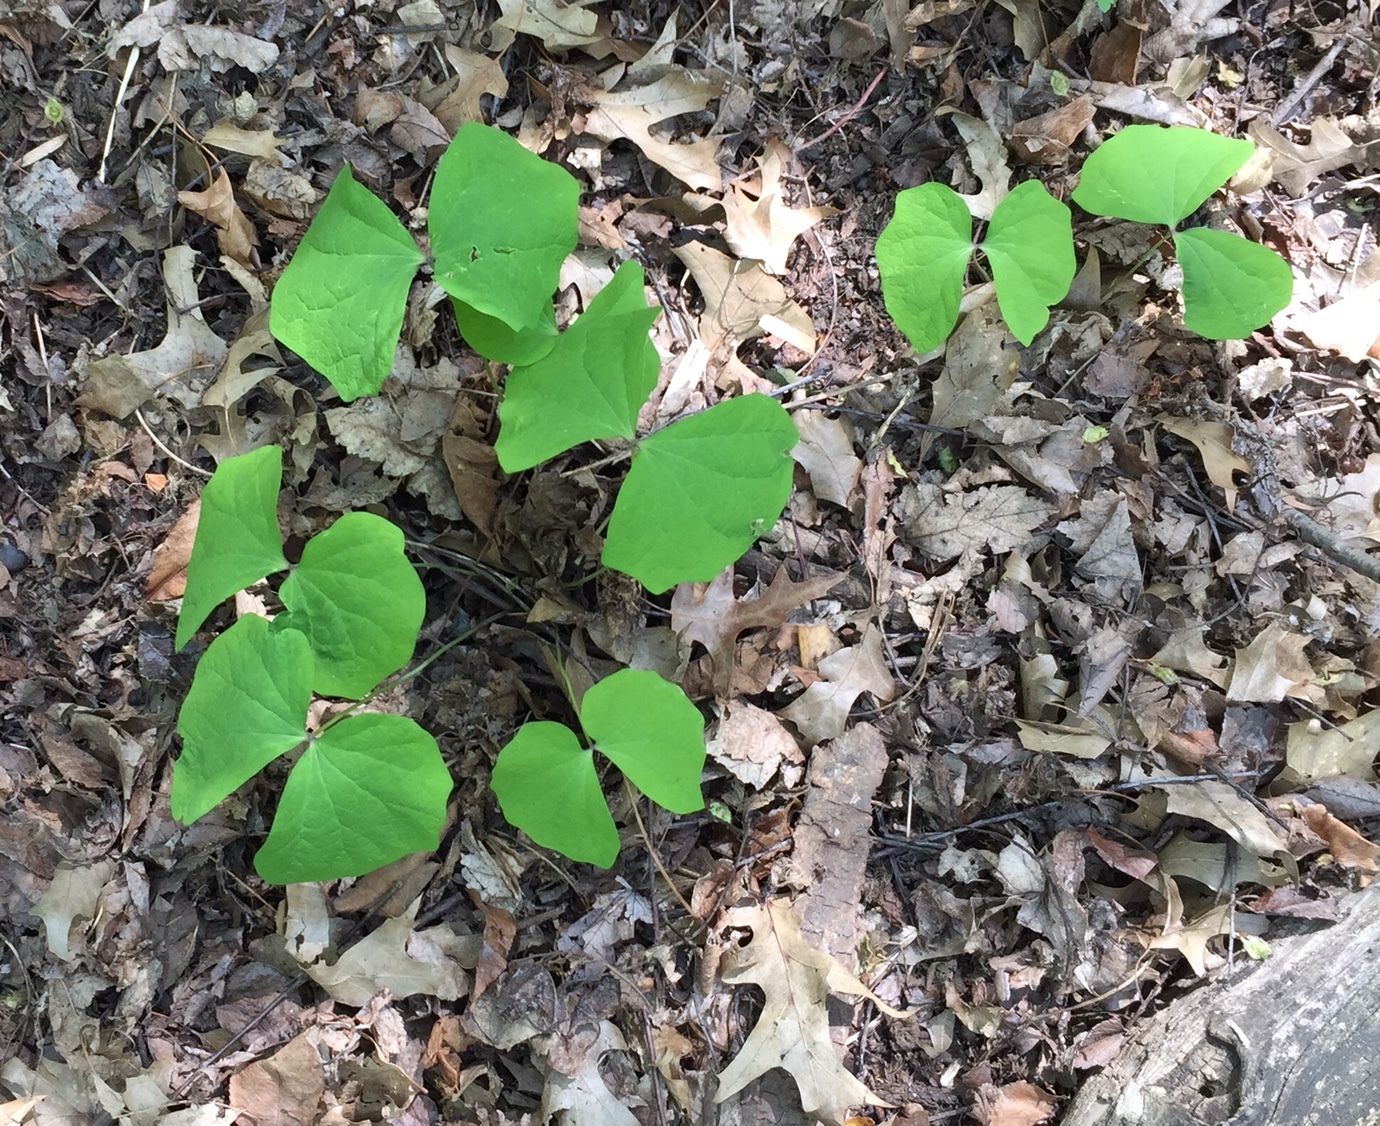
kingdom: Plantae
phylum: Tracheophyta
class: Magnoliopsida
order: Ranunculales
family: Berberidaceae
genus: Jeffersonia
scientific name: Jeffersonia diphylla
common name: Rheumatism-root
